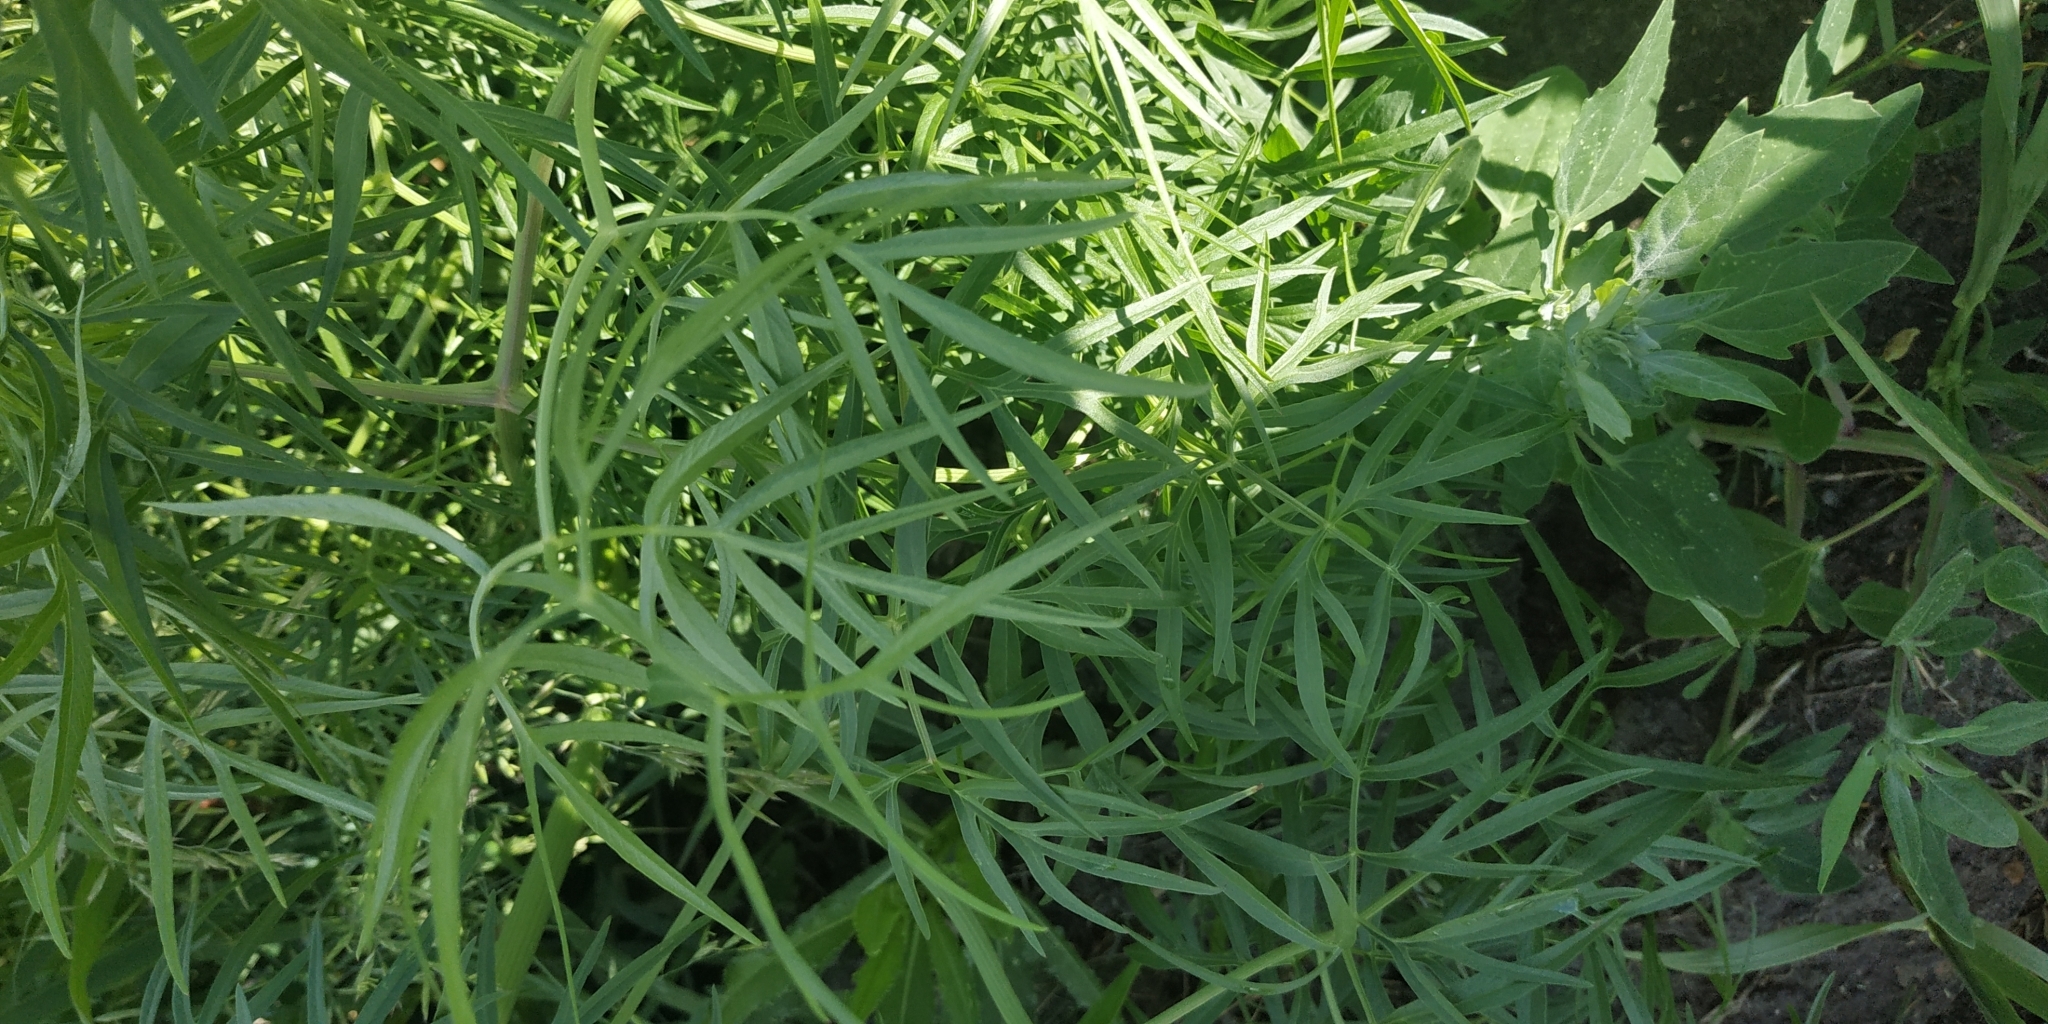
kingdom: Plantae
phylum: Tracheophyta
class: Magnoliopsida
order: Apiales
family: Apiaceae
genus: Cenolophium
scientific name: Cenolophium fischeri
